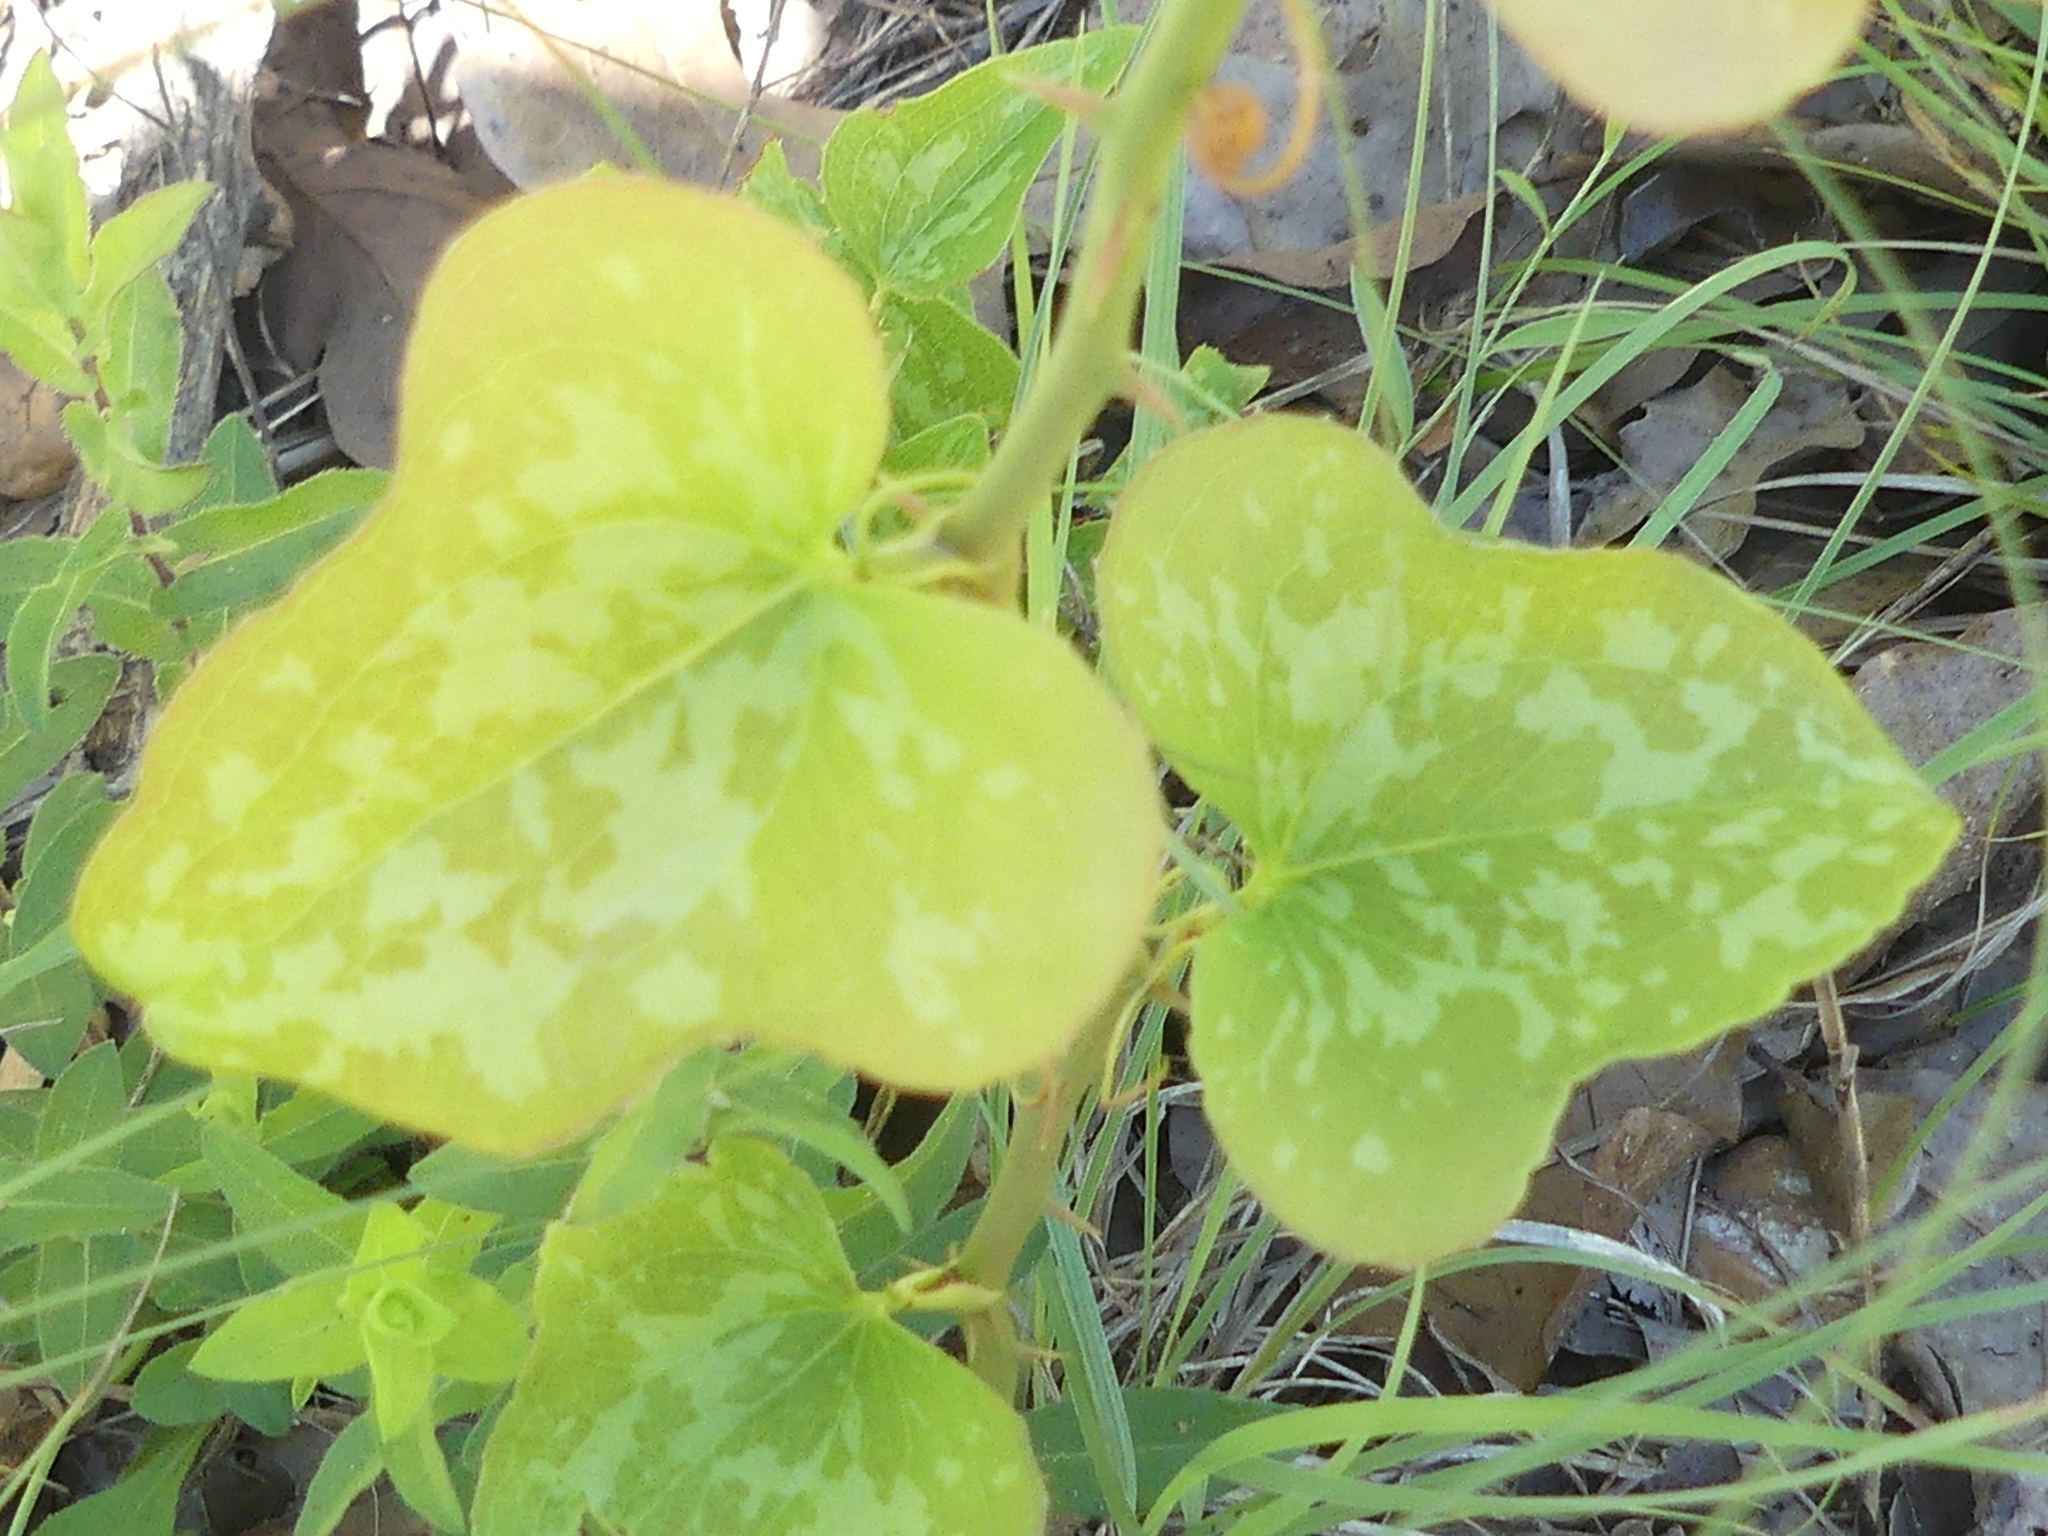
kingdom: Plantae
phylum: Tracheophyta
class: Liliopsida
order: Liliales
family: Smilacaceae
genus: Smilax
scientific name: Smilax bona-nox
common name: Catbrier
